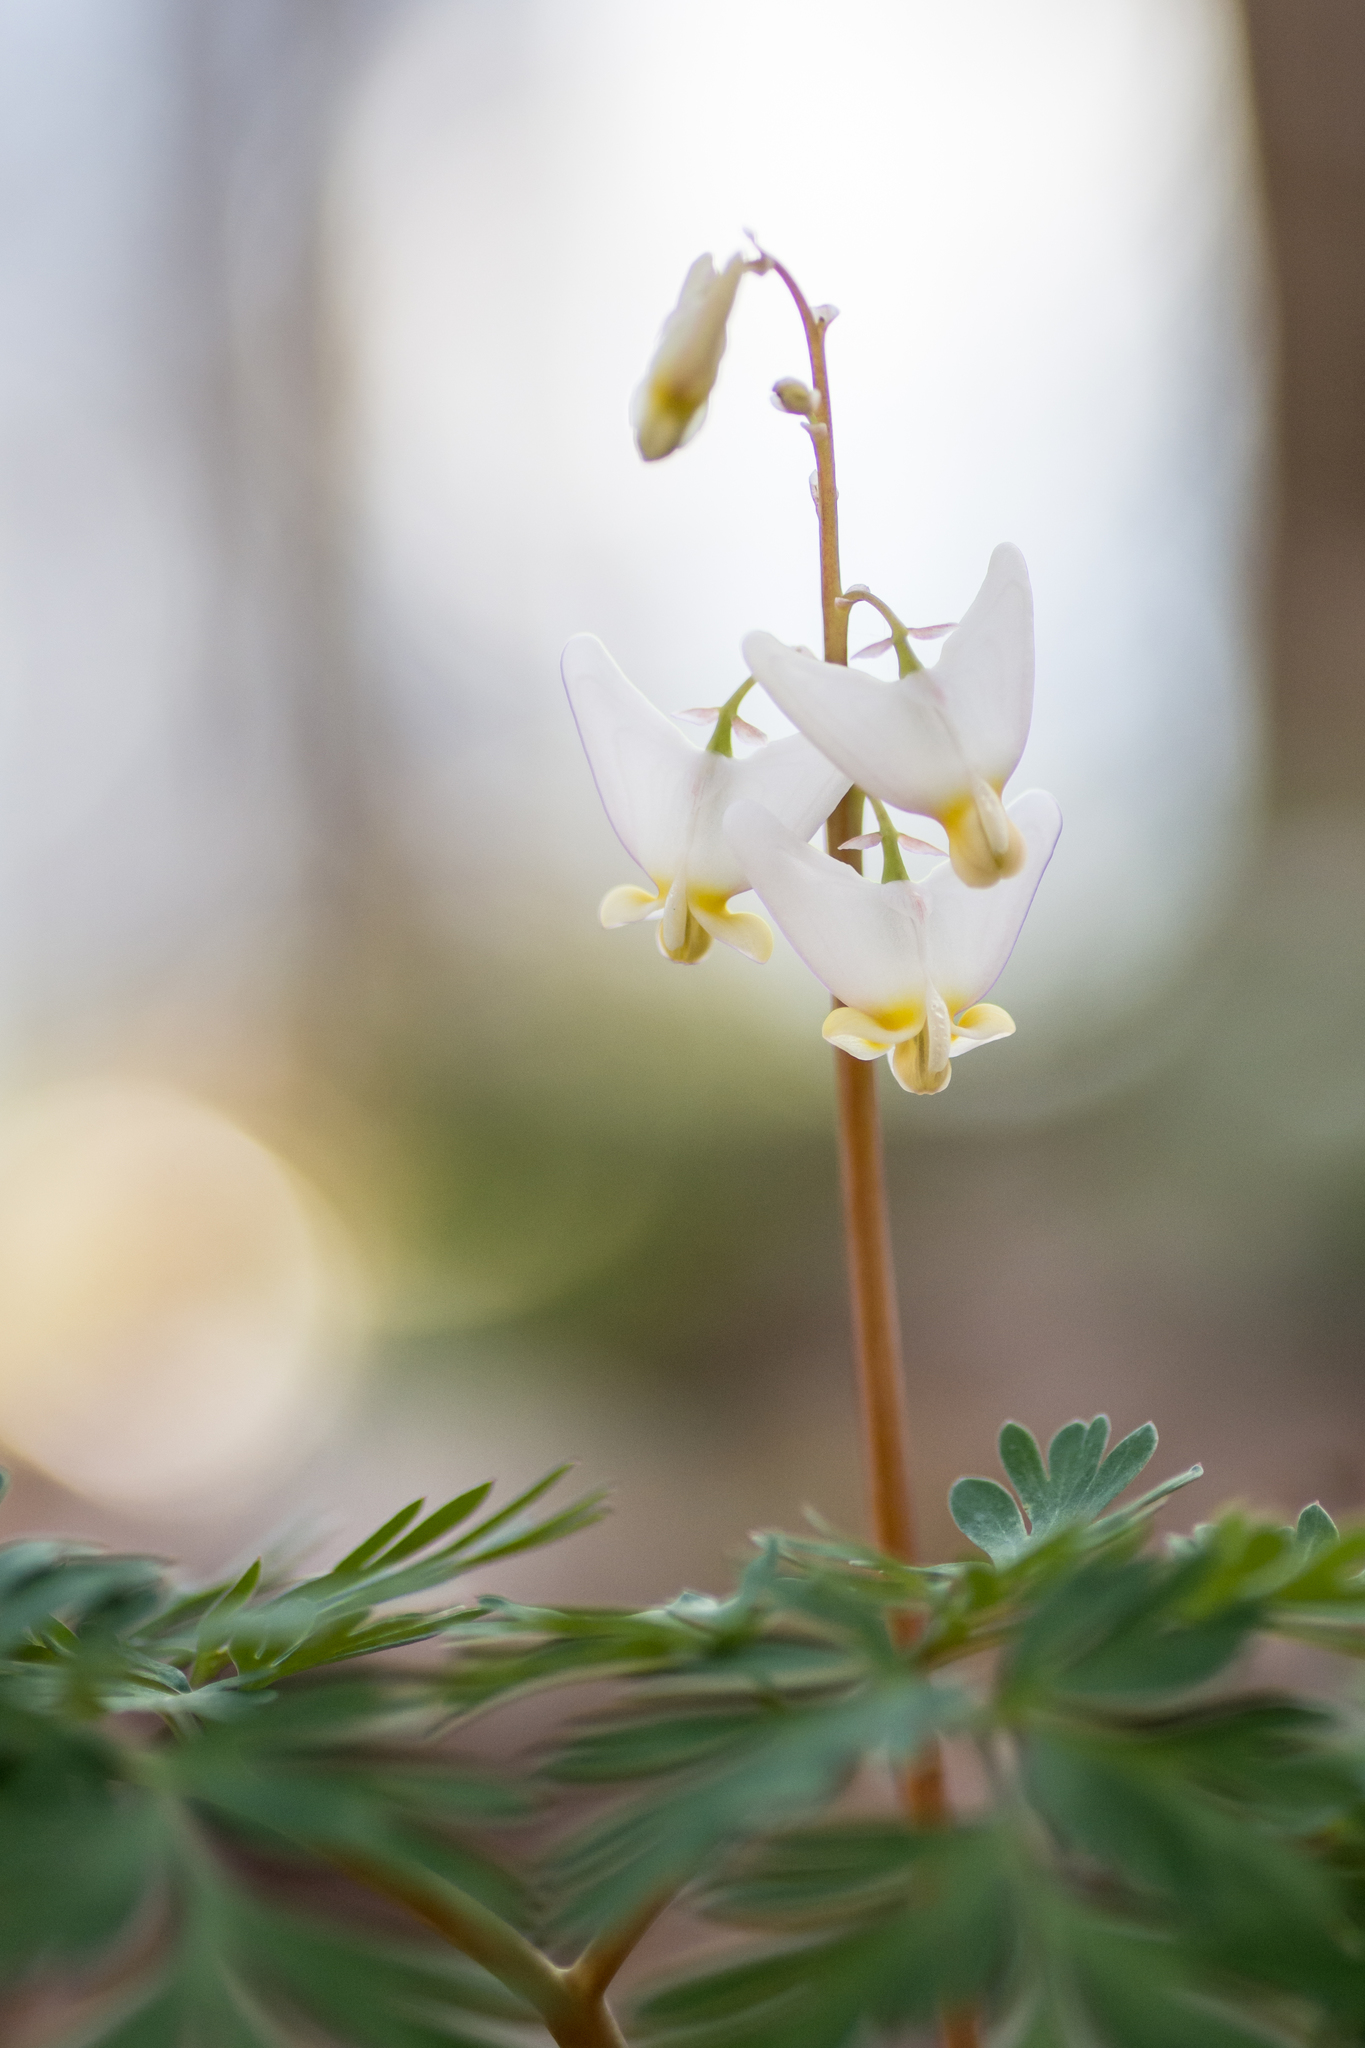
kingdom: Plantae
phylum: Tracheophyta
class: Magnoliopsida
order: Ranunculales
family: Papaveraceae
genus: Dicentra
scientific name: Dicentra cucullaria
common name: Dutchman's breeches
